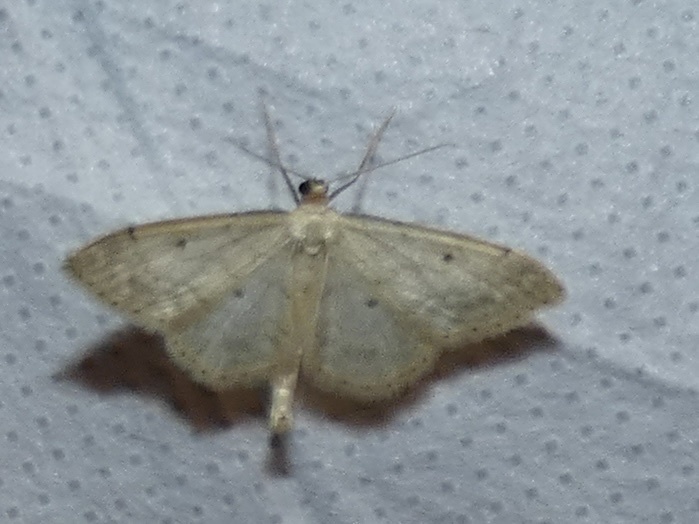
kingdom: Animalia
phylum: Arthropoda
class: Insecta
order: Lepidoptera
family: Geometridae
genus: Idaea
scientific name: Idaea biselata
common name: Small fan-footed wave
